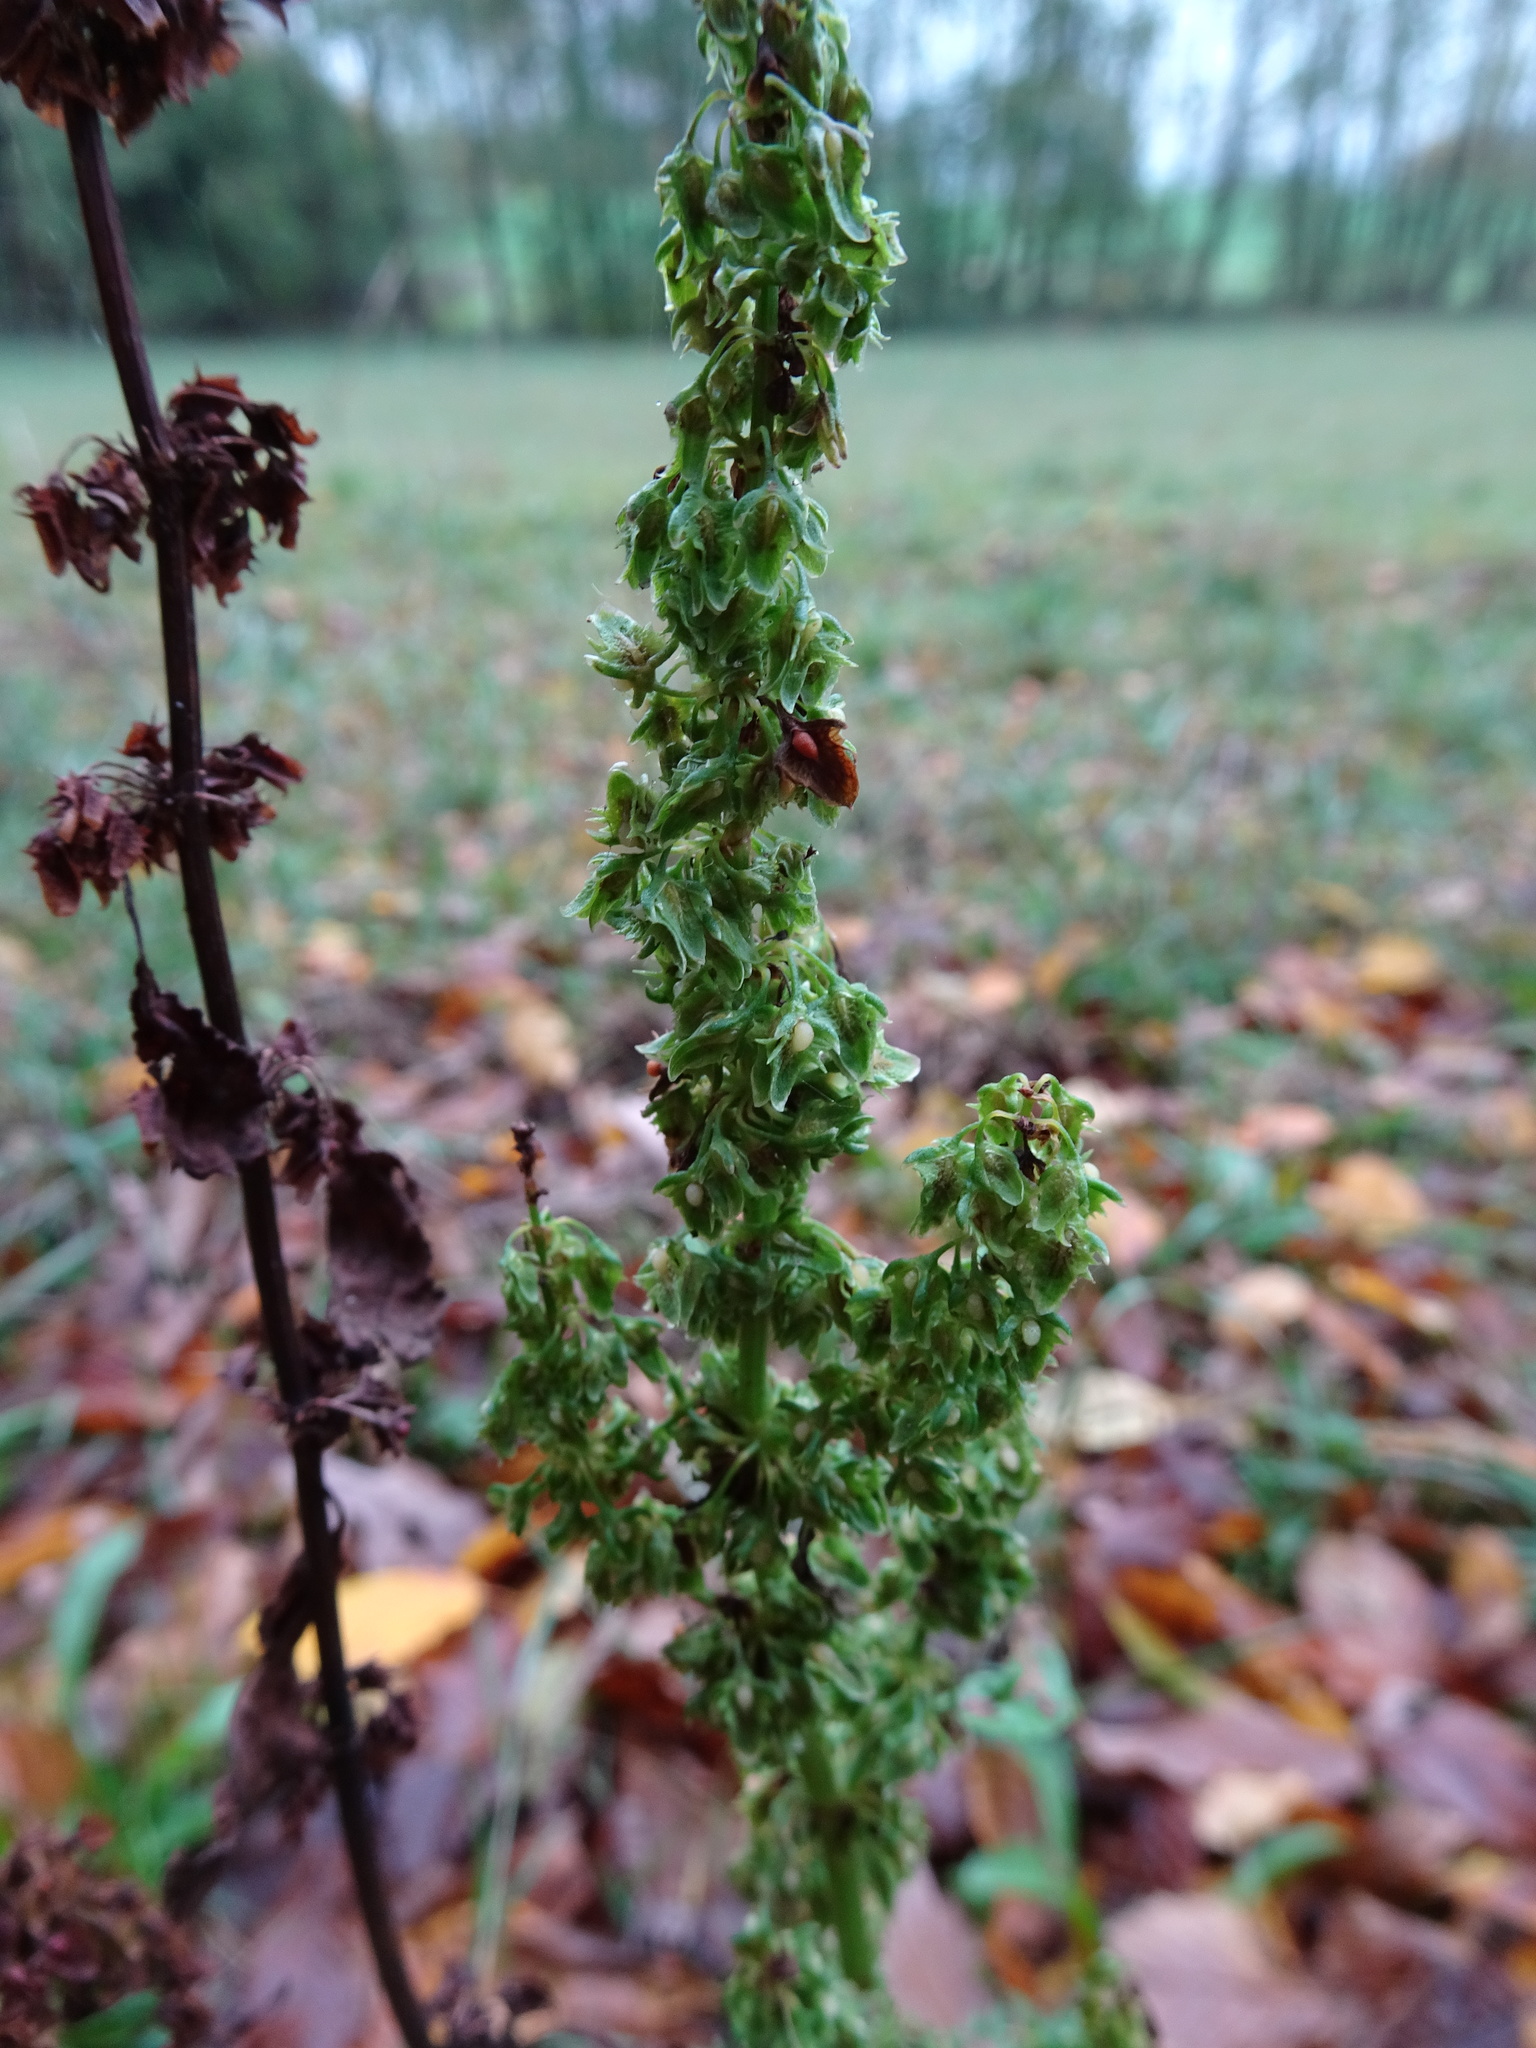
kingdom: Plantae
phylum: Tracheophyta
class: Magnoliopsida
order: Caryophyllales
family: Polygonaceae
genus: Rumex
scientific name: Rumex obtusifolius
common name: Bitter dock
